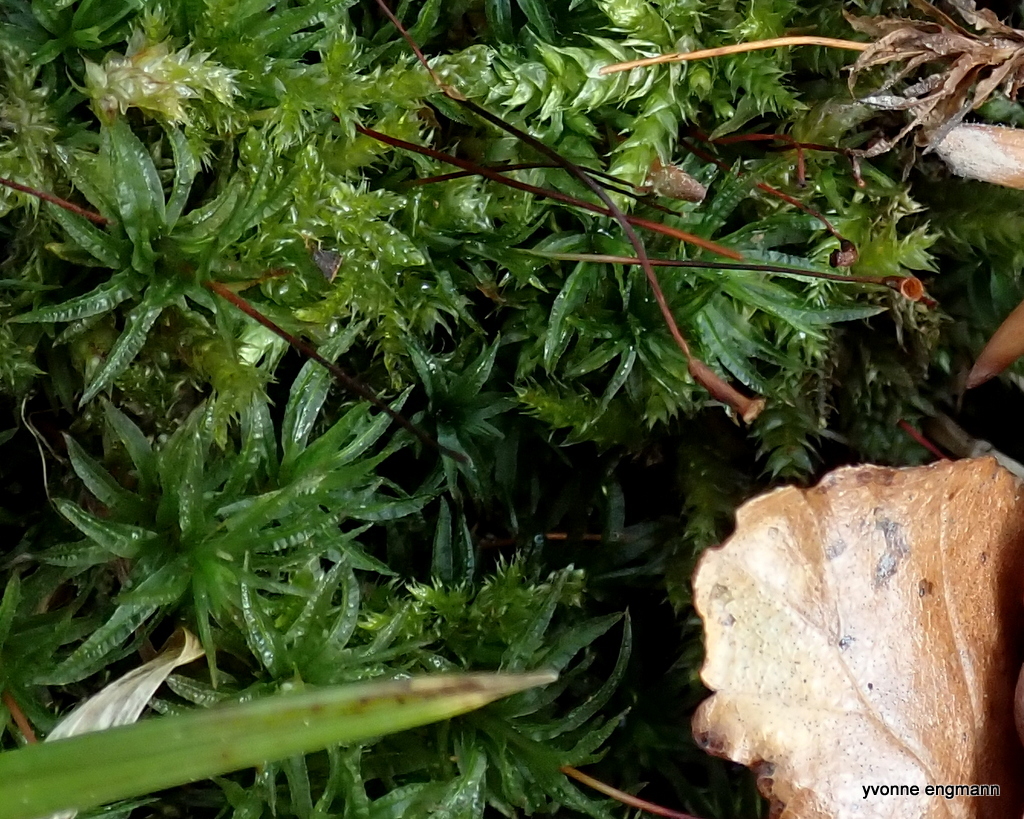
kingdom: Plantae
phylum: Bryophyta
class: Polytrichopsida
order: Polytrichales
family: Polytrichaceae
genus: Atrichum
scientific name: Atrichum undulatum
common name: Common smoothcap
